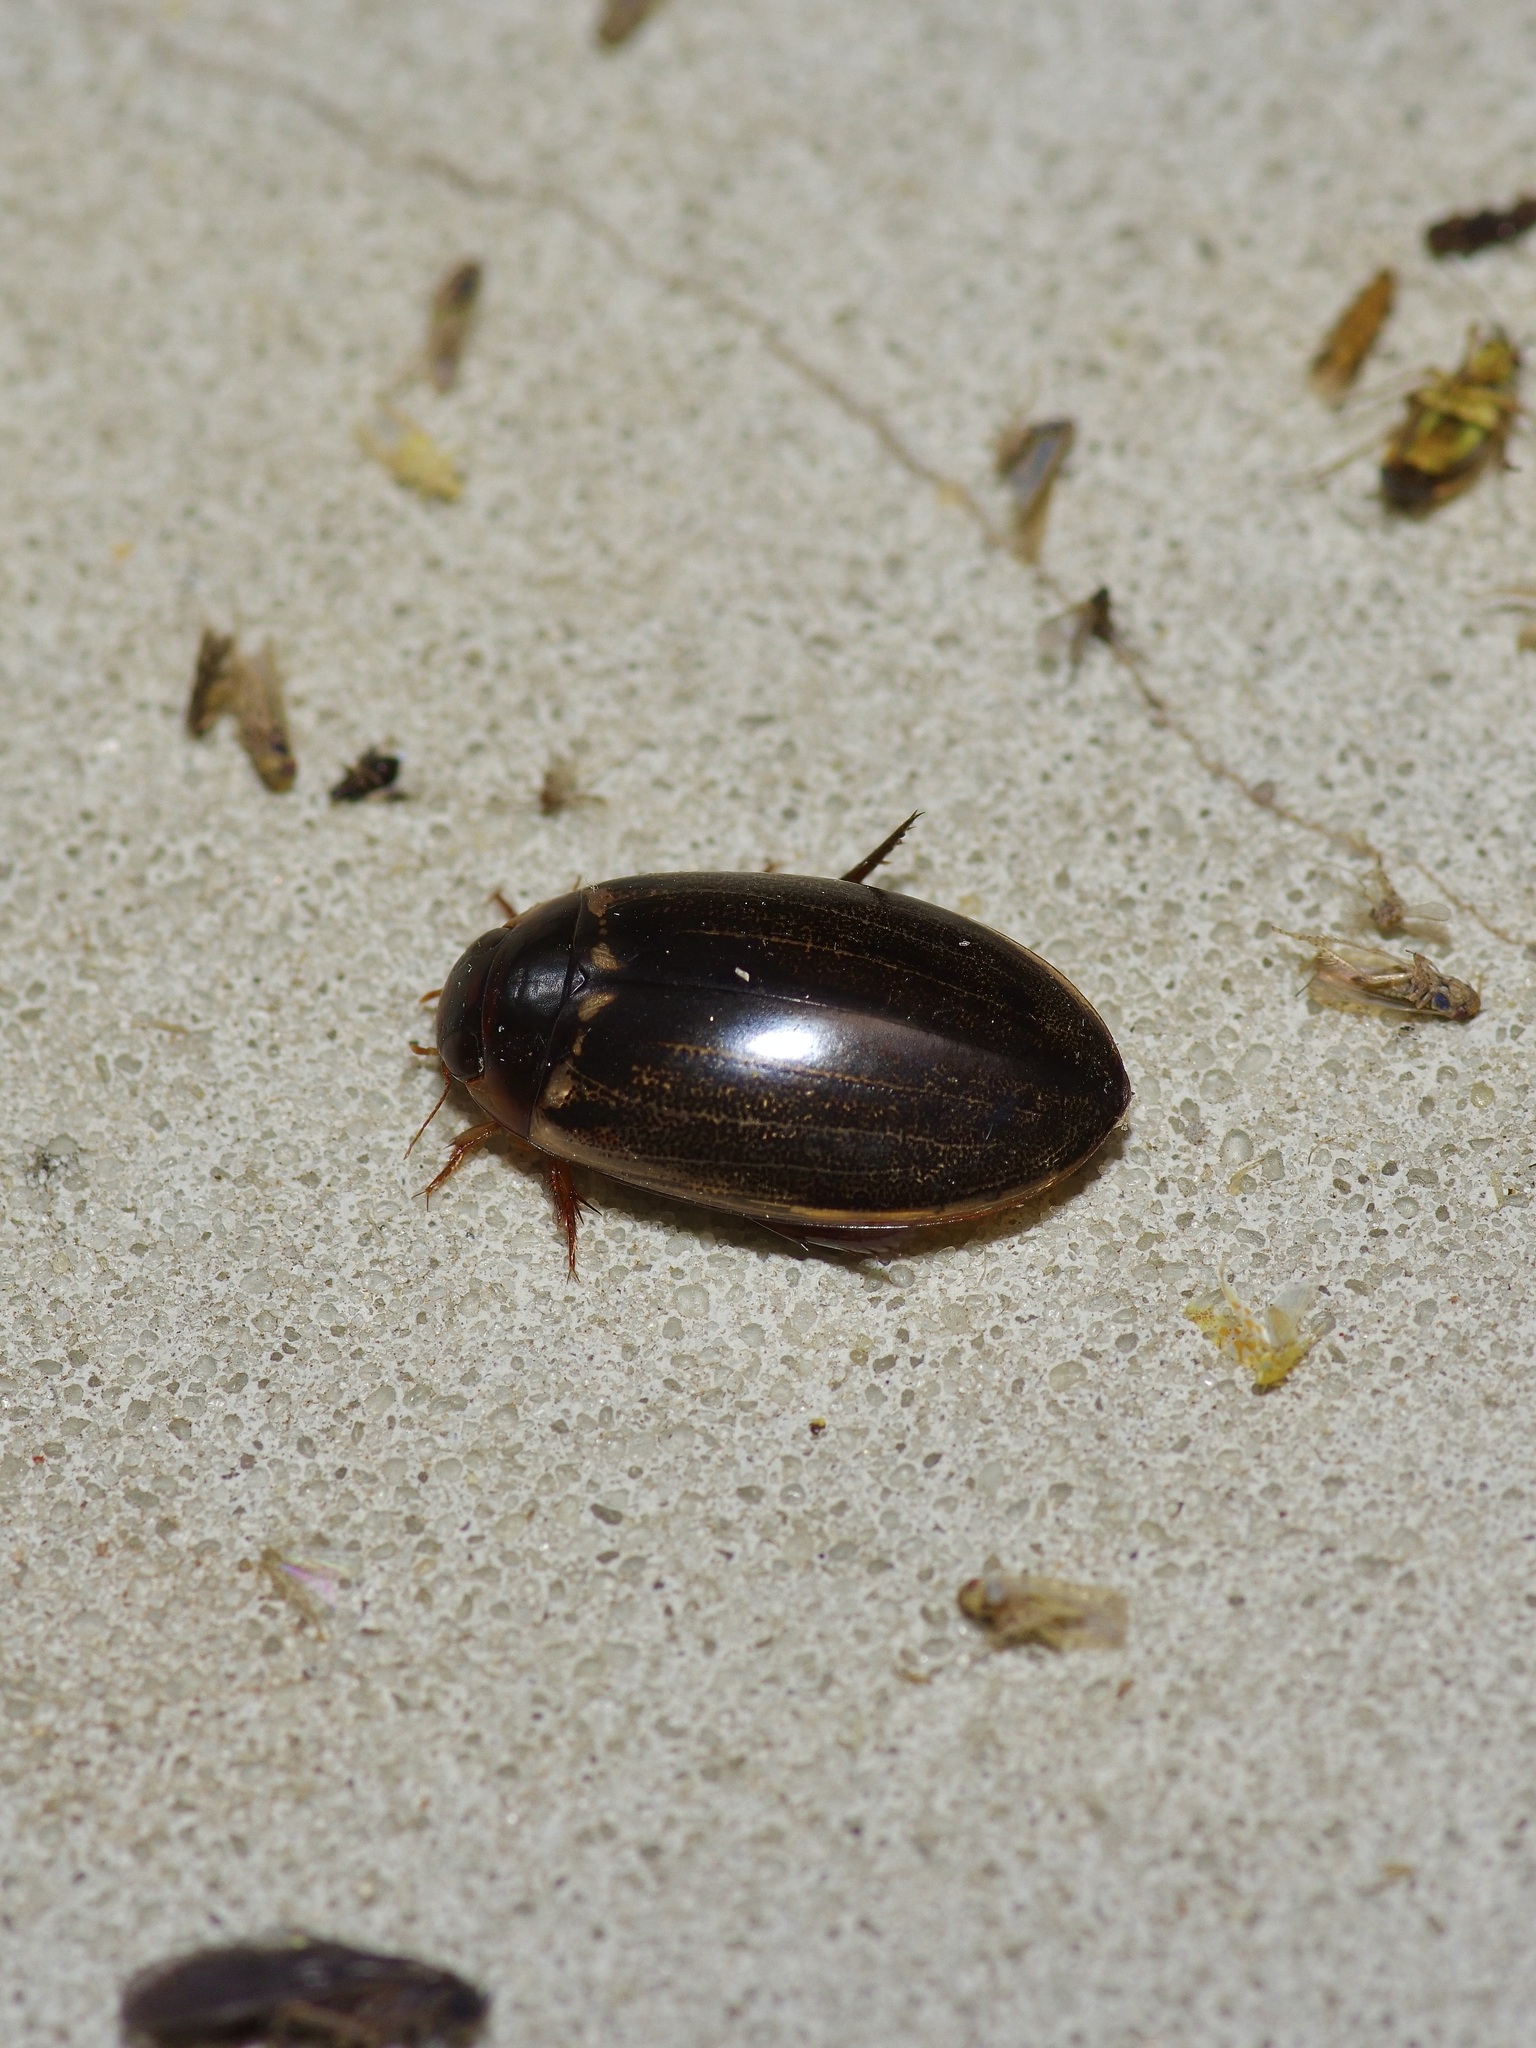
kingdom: Animalia
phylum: Arthropoda
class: Insecta
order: Coleoptera
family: Dytiscidae
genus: Meridiorhantus
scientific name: Meridiorhantus calidus
